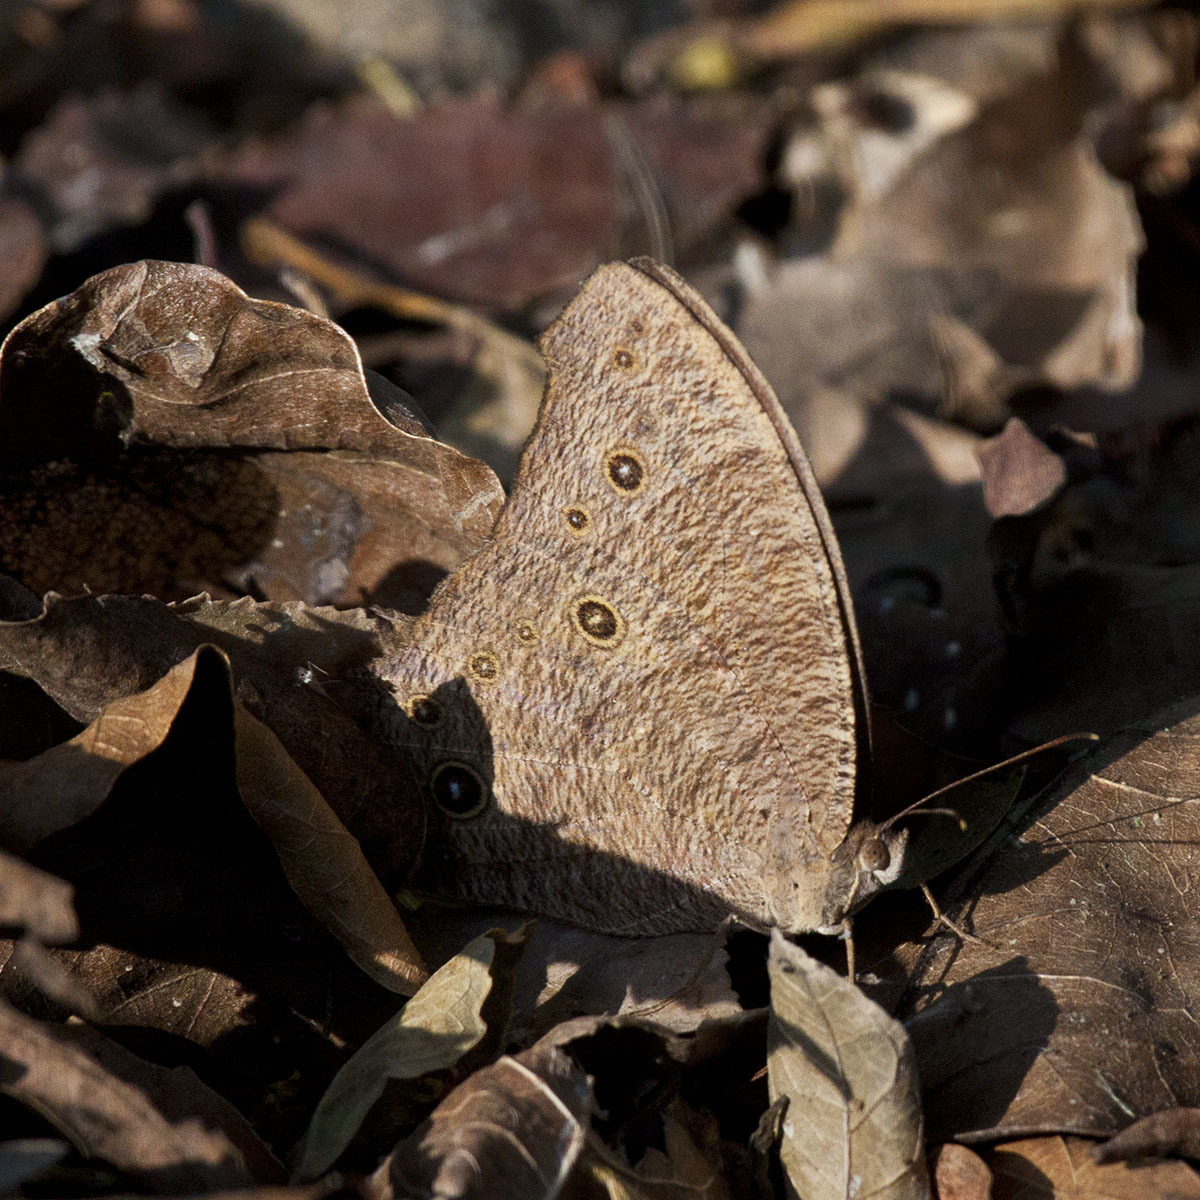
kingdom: Animalia
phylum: Arthropoda
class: Insecta
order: Lepidoptera
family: Nymphalidae
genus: Melanitis
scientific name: Melanitis leda
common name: Twilight brown
